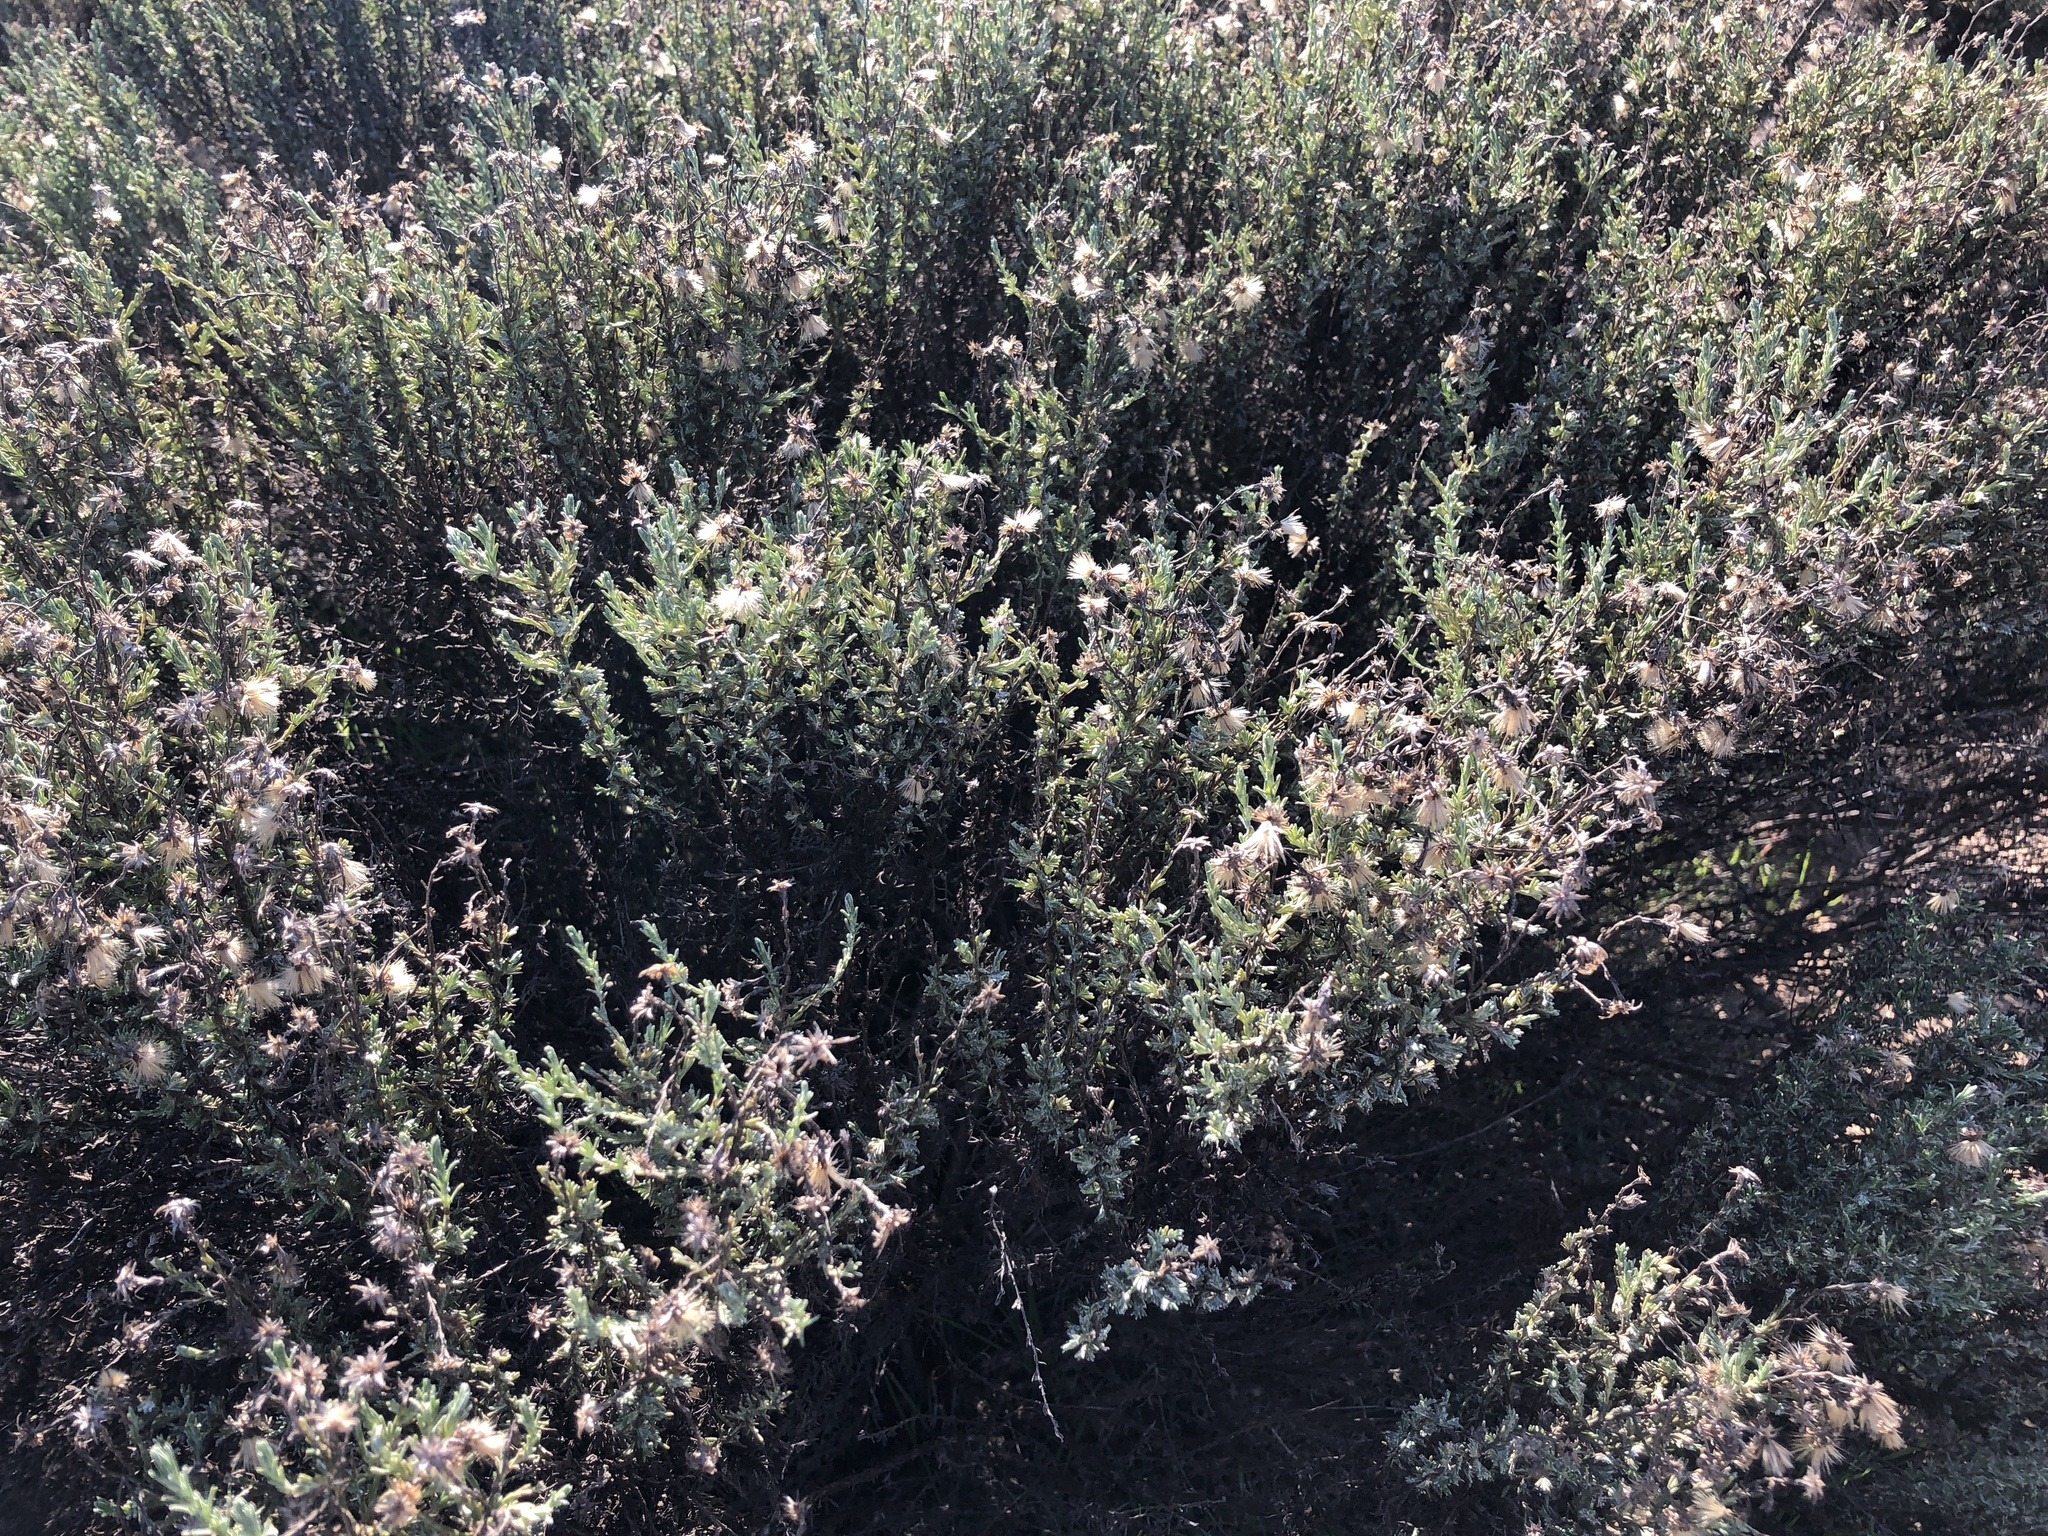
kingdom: Plantae
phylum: Tracheophyta
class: Magnoliopsida
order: Asterales
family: Asteraceae
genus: Ericameria
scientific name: Ericameria ericoides
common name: California goldenbush
